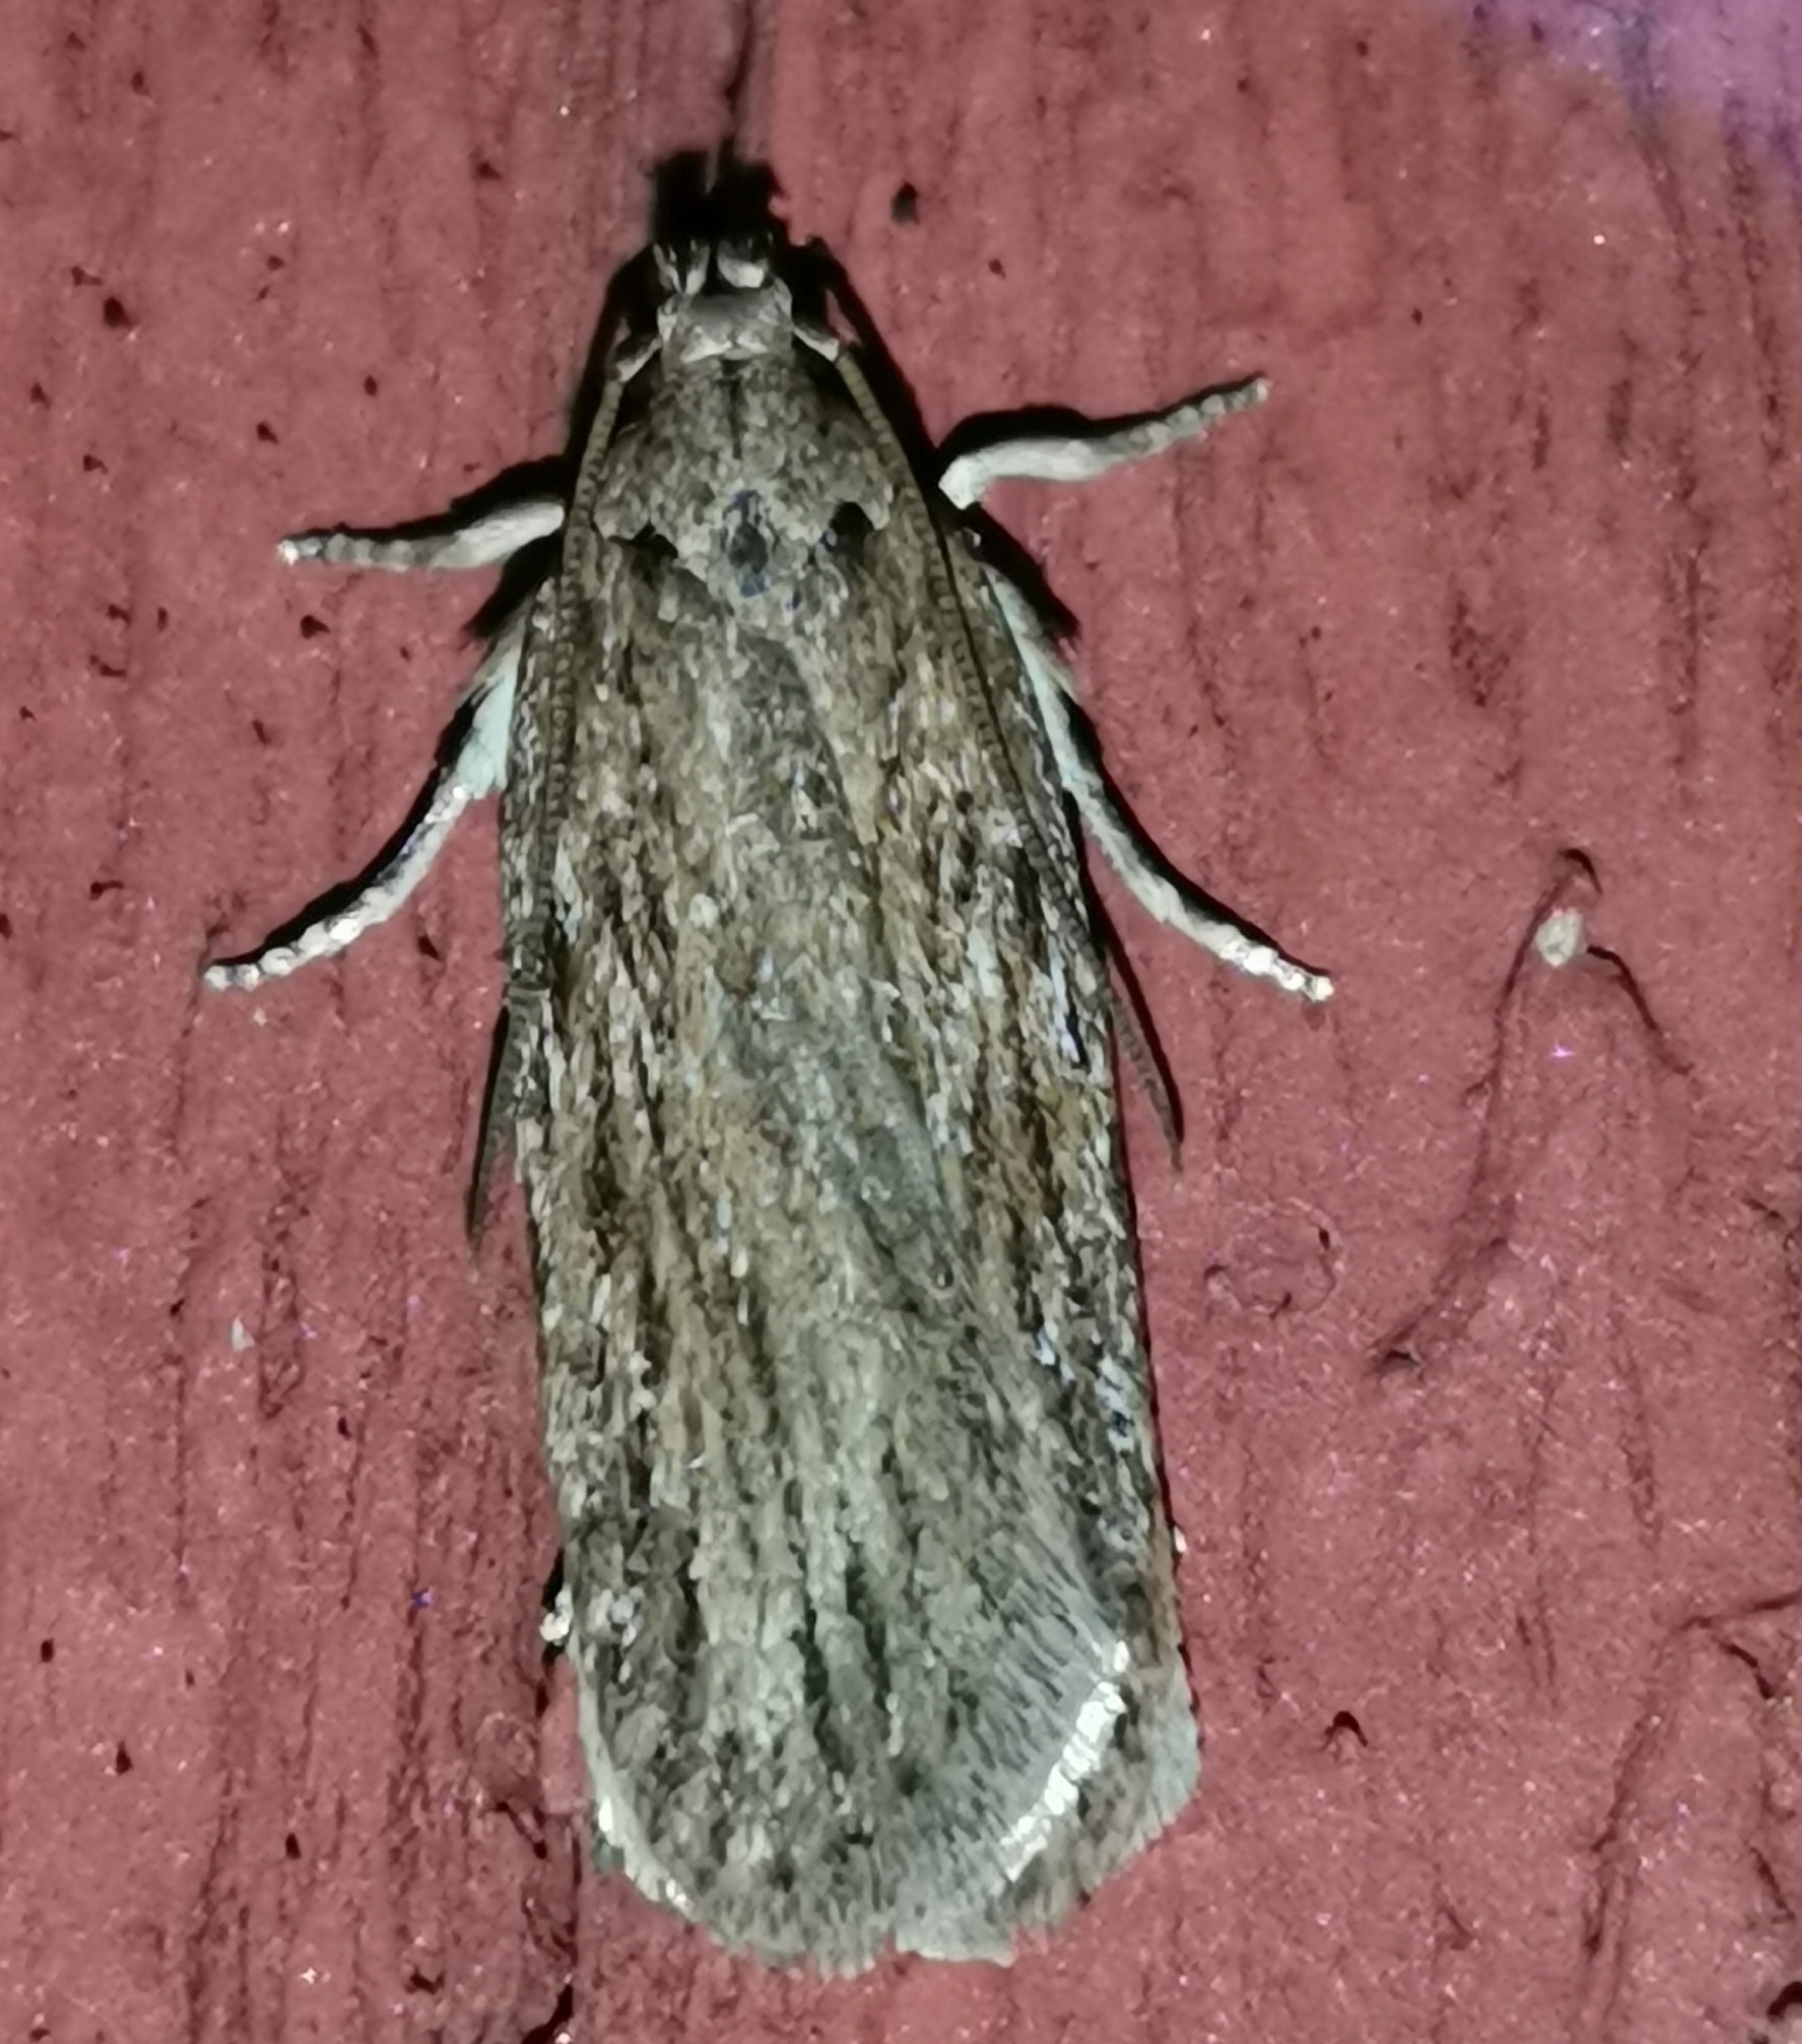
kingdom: Animalia
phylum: Arthropoda
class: Insecta
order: Lepidoptera
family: Depressariidae
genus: Depressaria
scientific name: Depressaria apiella
